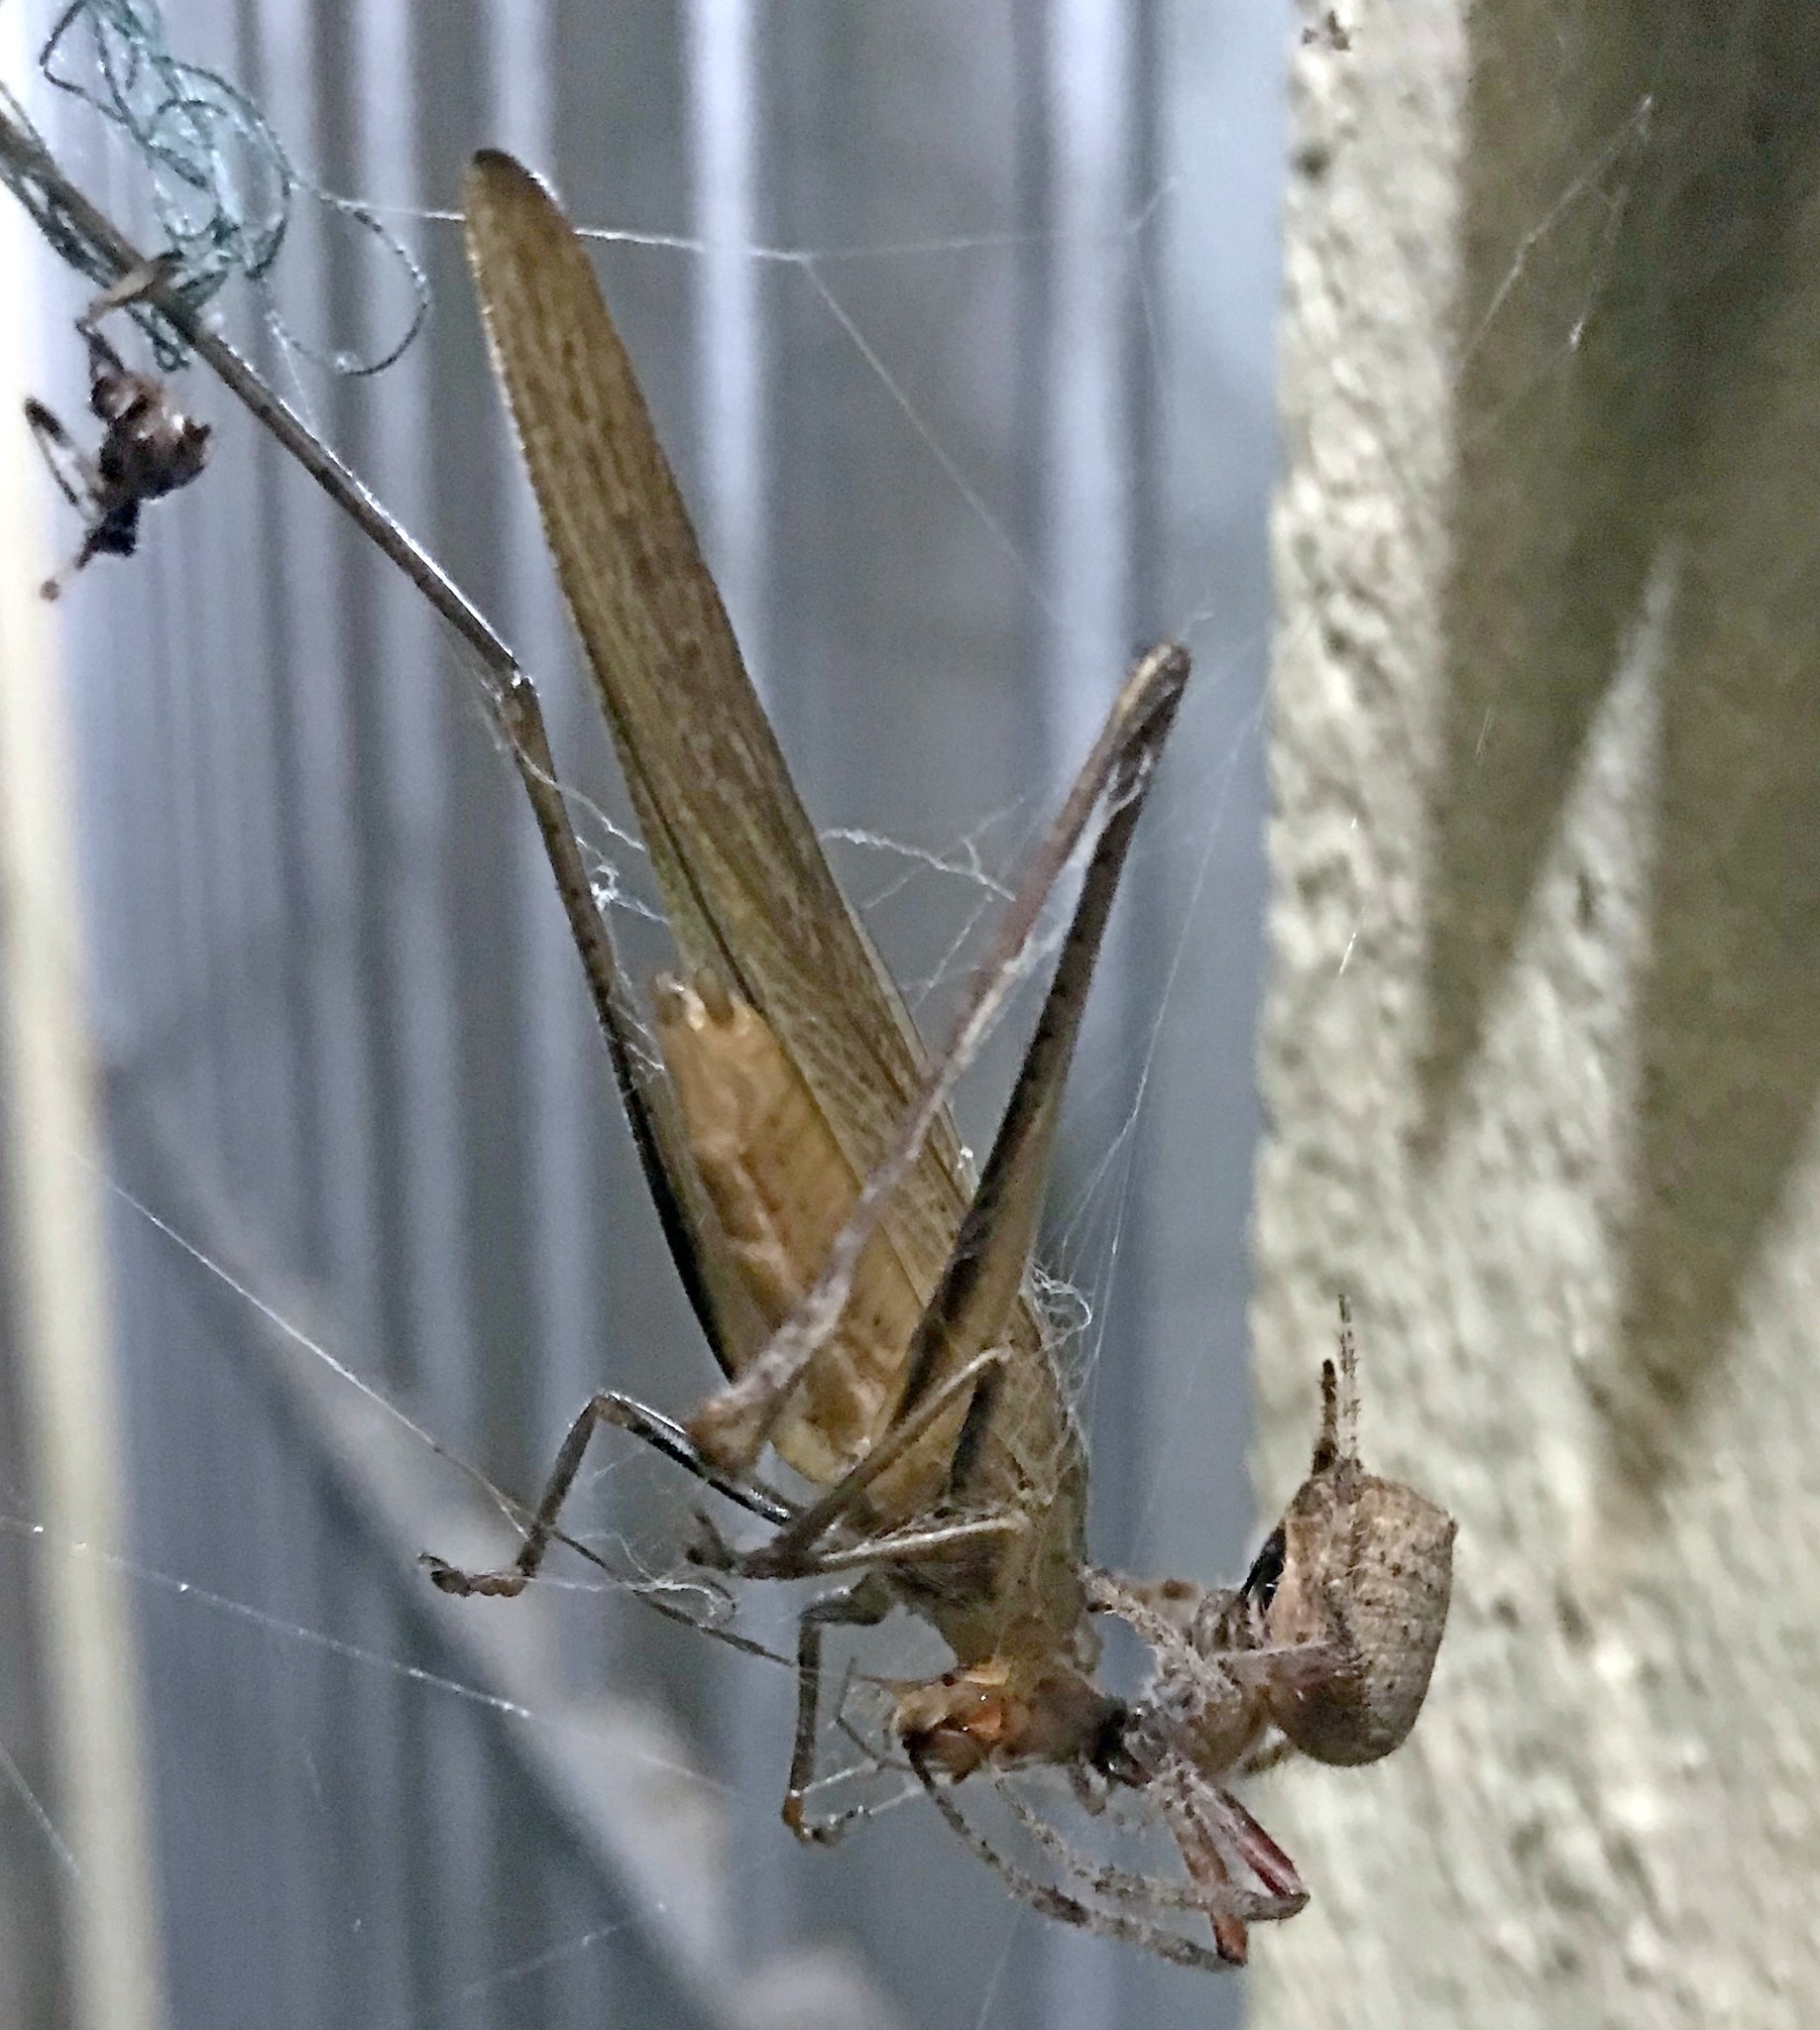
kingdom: Animalia
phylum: Arthropoda
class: Arachnida
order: Araneae
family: Araneidae
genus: Eriophora
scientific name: Eriophora edax
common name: Orb weavers
